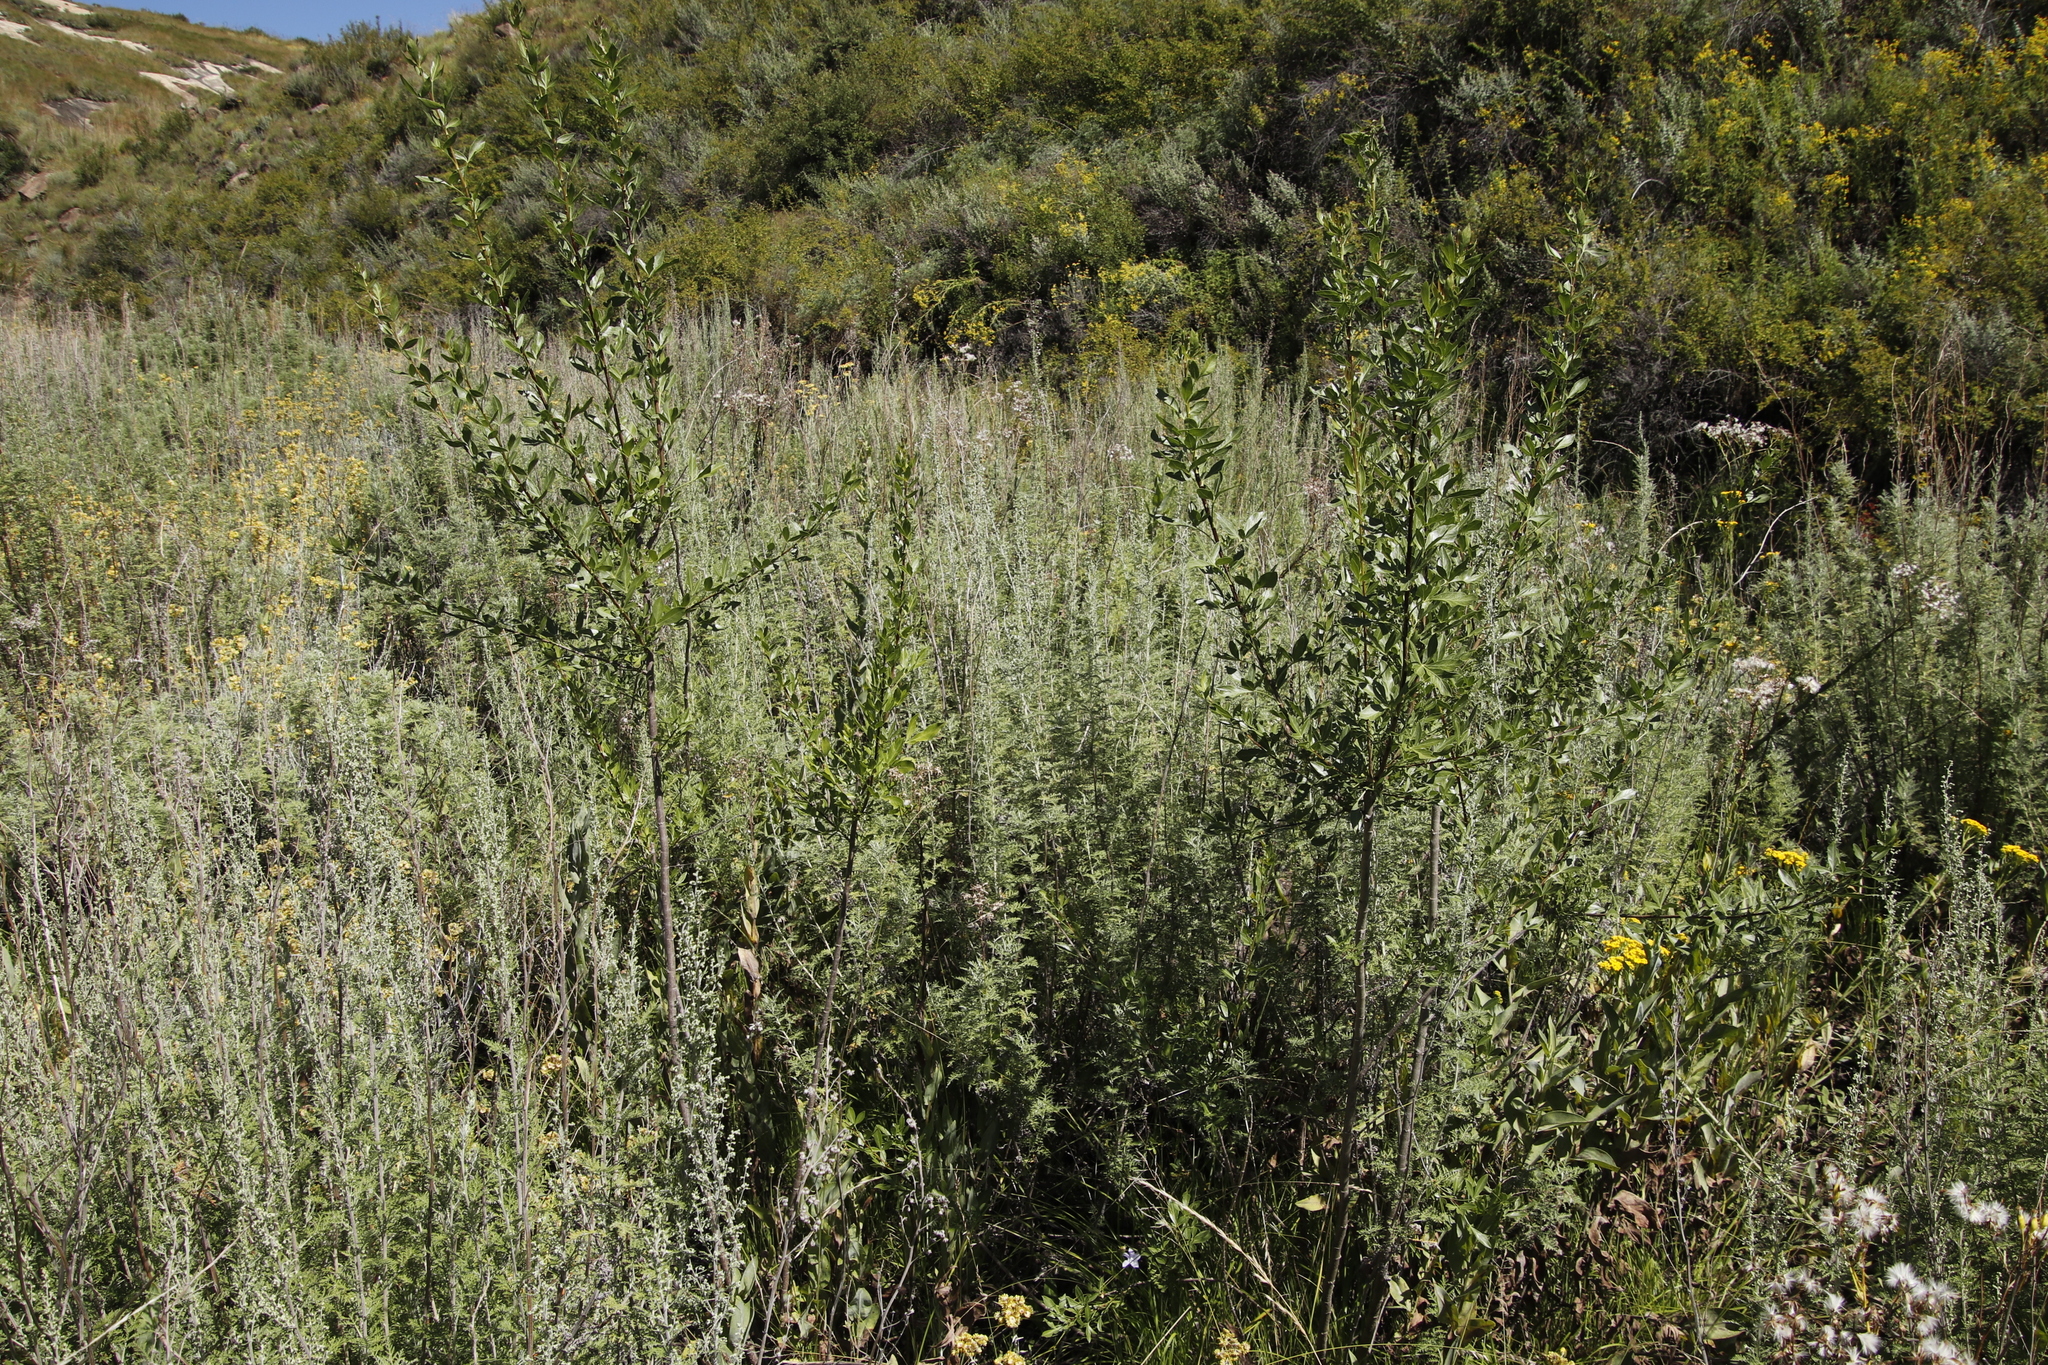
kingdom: Plantae
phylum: Tracheophyta
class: Magnoliopsida
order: Asterales
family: Asteraceae
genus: Artemisia
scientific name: Artemisia afra
